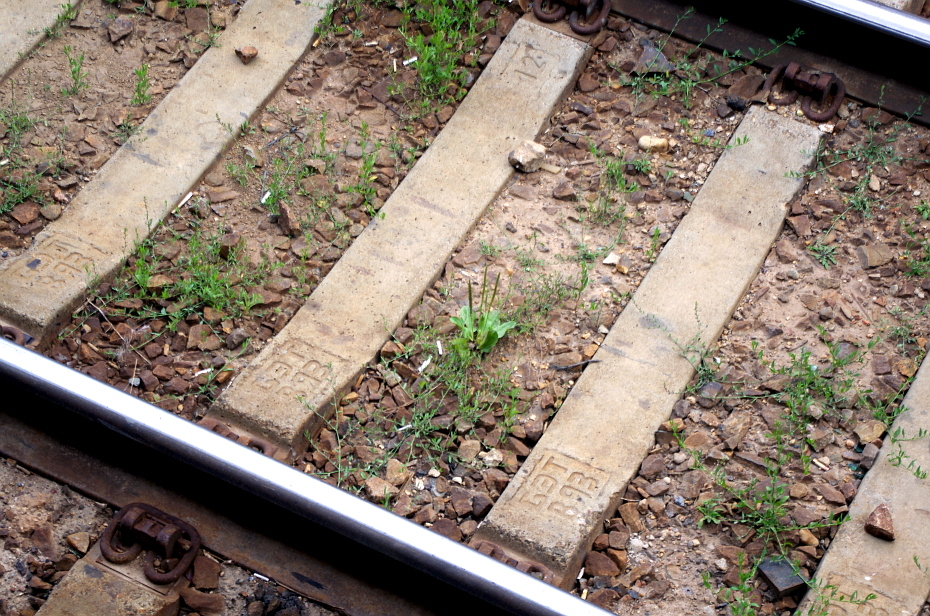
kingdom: Plantae
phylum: Tracheophyta
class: Magnoliopsida
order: Lamiales
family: Plantaginaceae
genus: Plantago
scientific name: Plantago major
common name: Common plantain
